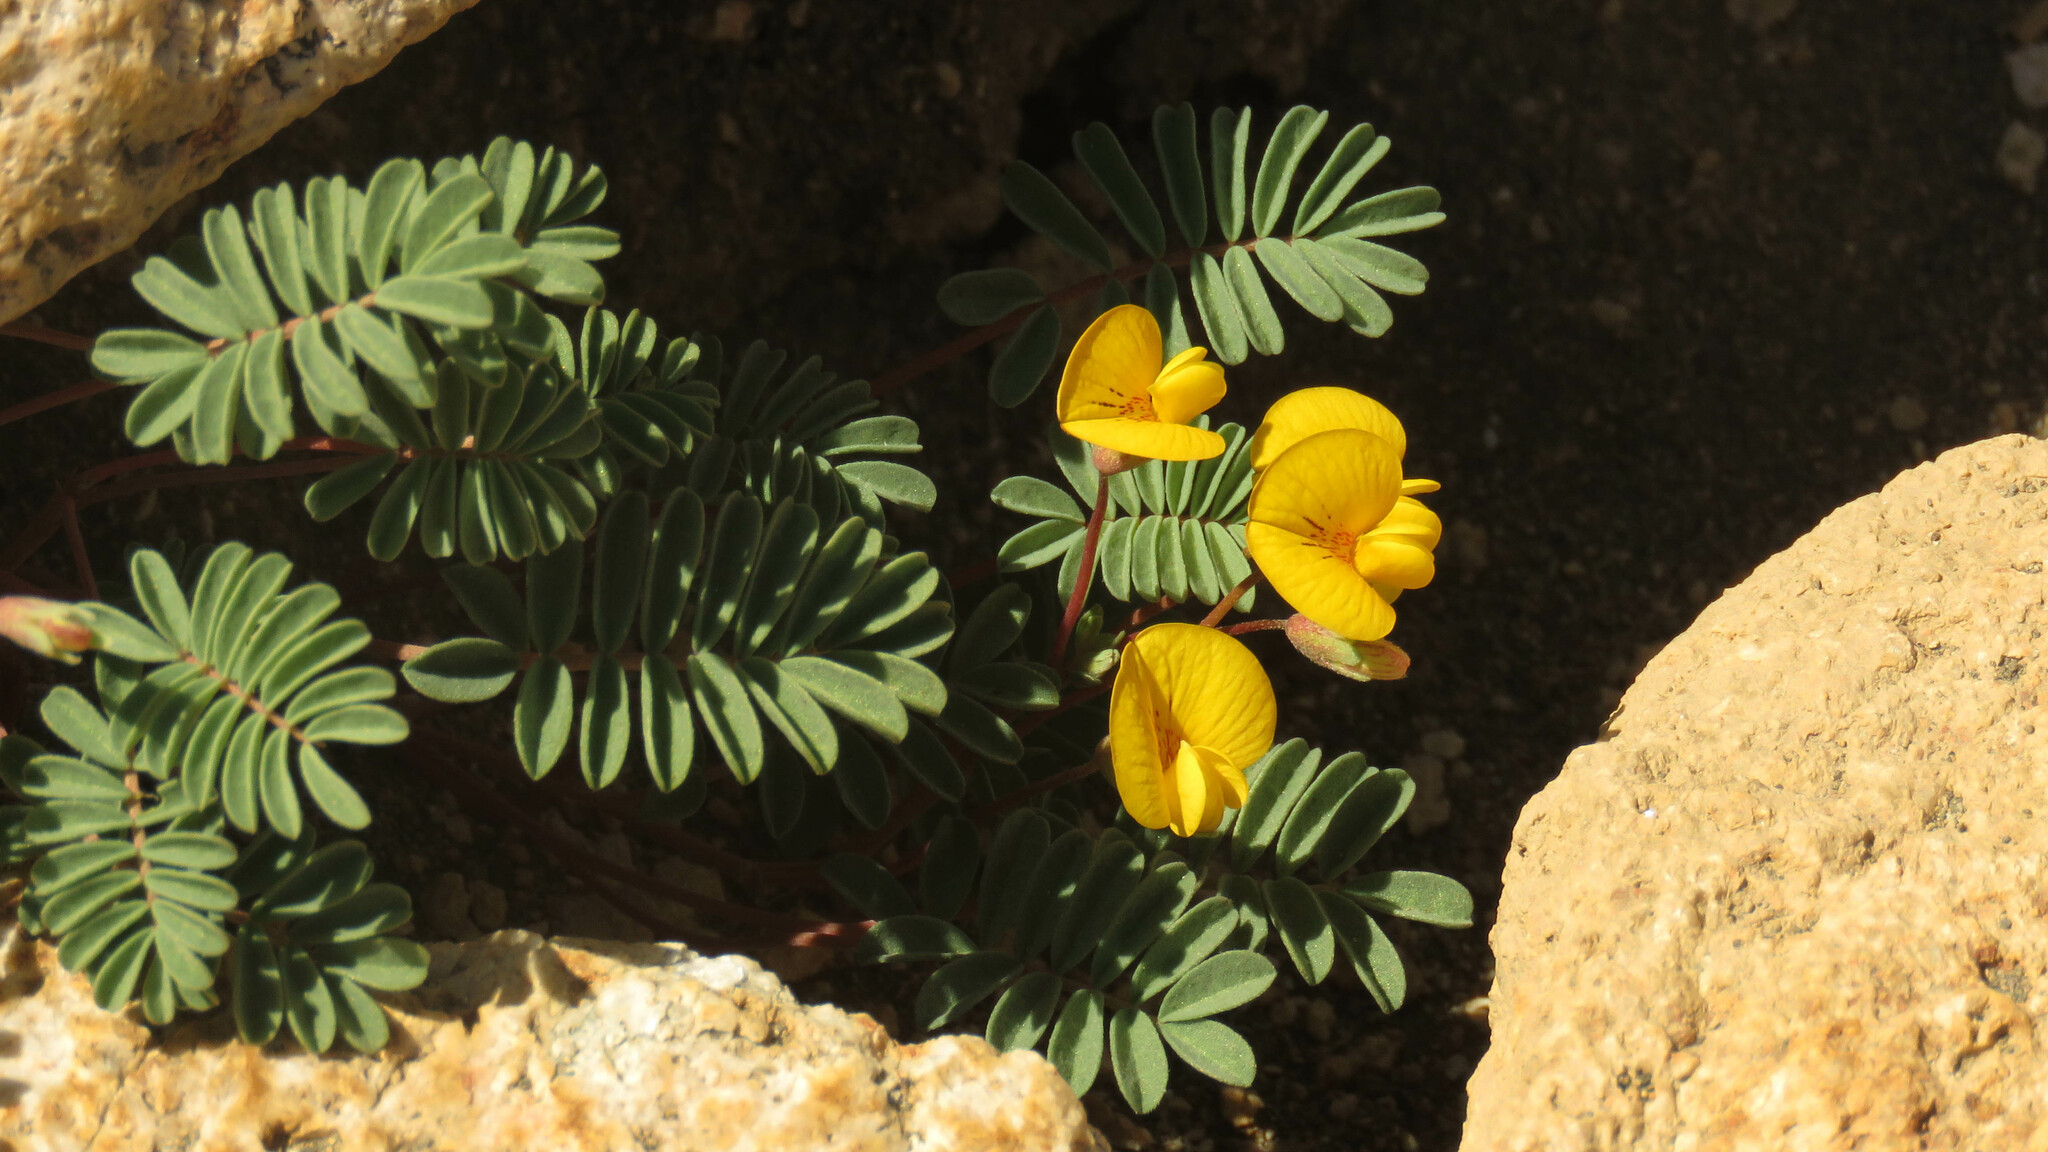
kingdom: Plantae
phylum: Tracheophyta
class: Magnoliopsida
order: Fabales
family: Fabaceae
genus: Adesmia
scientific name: Adesmia longipes
